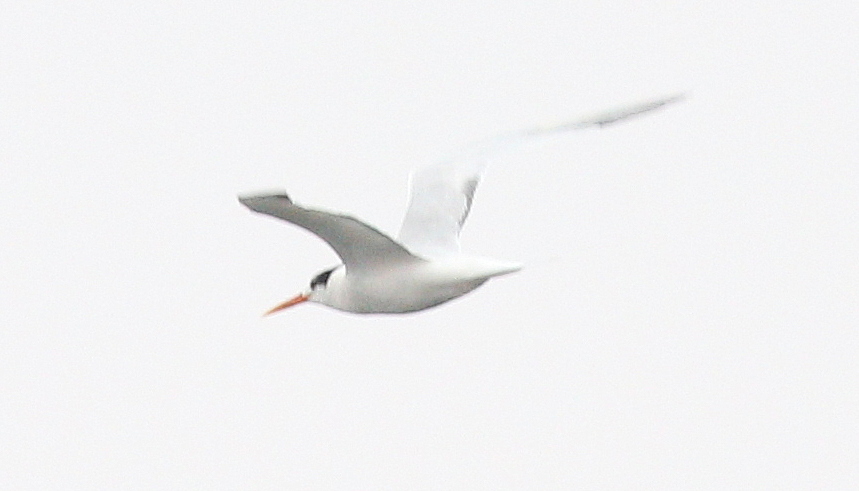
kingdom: Animalia
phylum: Chordata
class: Aves
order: Charadriiformes
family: Laridae
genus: Thalasseus
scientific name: Thalasseus elegans
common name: Elegant tern
